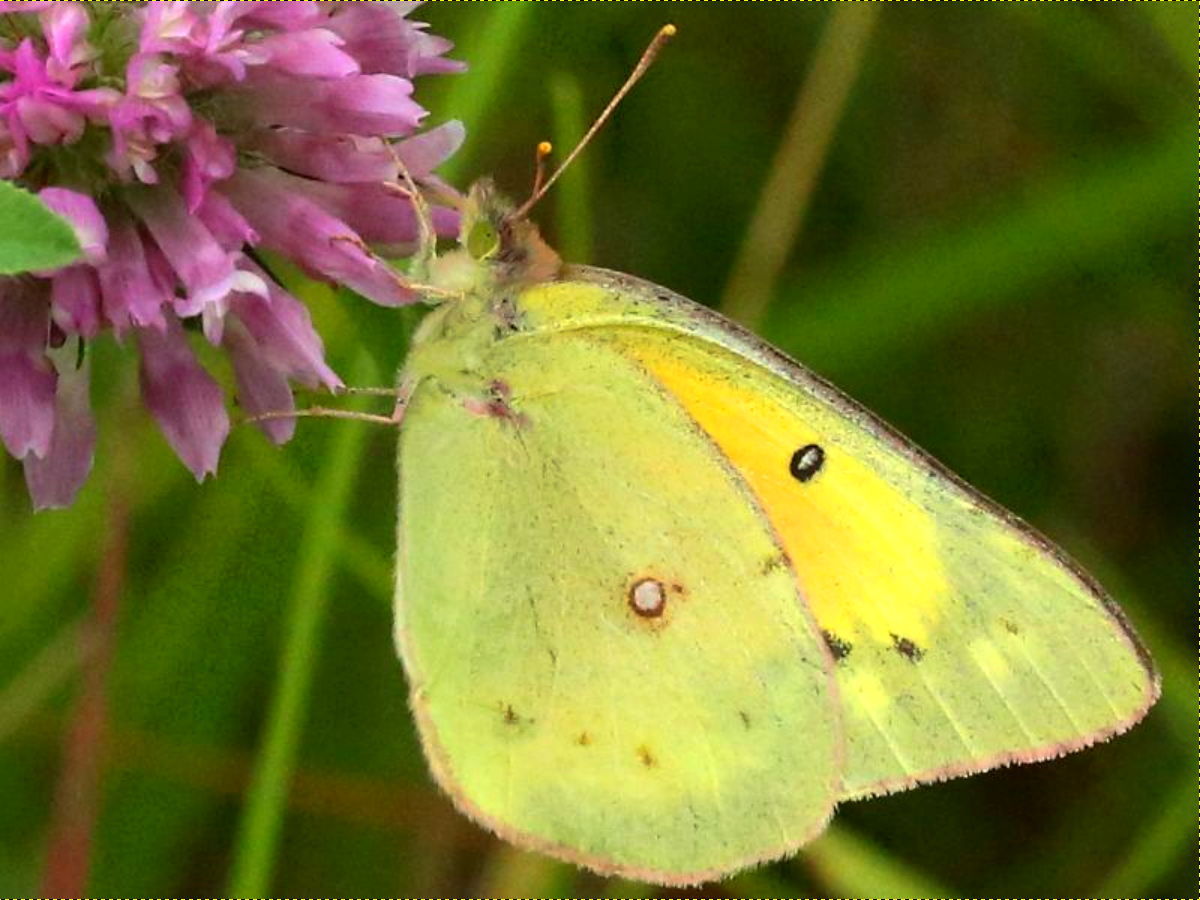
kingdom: Animalia
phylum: Arthropoda
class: Insecta
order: Lepidoptera
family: Pieridae
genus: Colias
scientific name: Colias eurytheme
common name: Alfalfa butterfly
